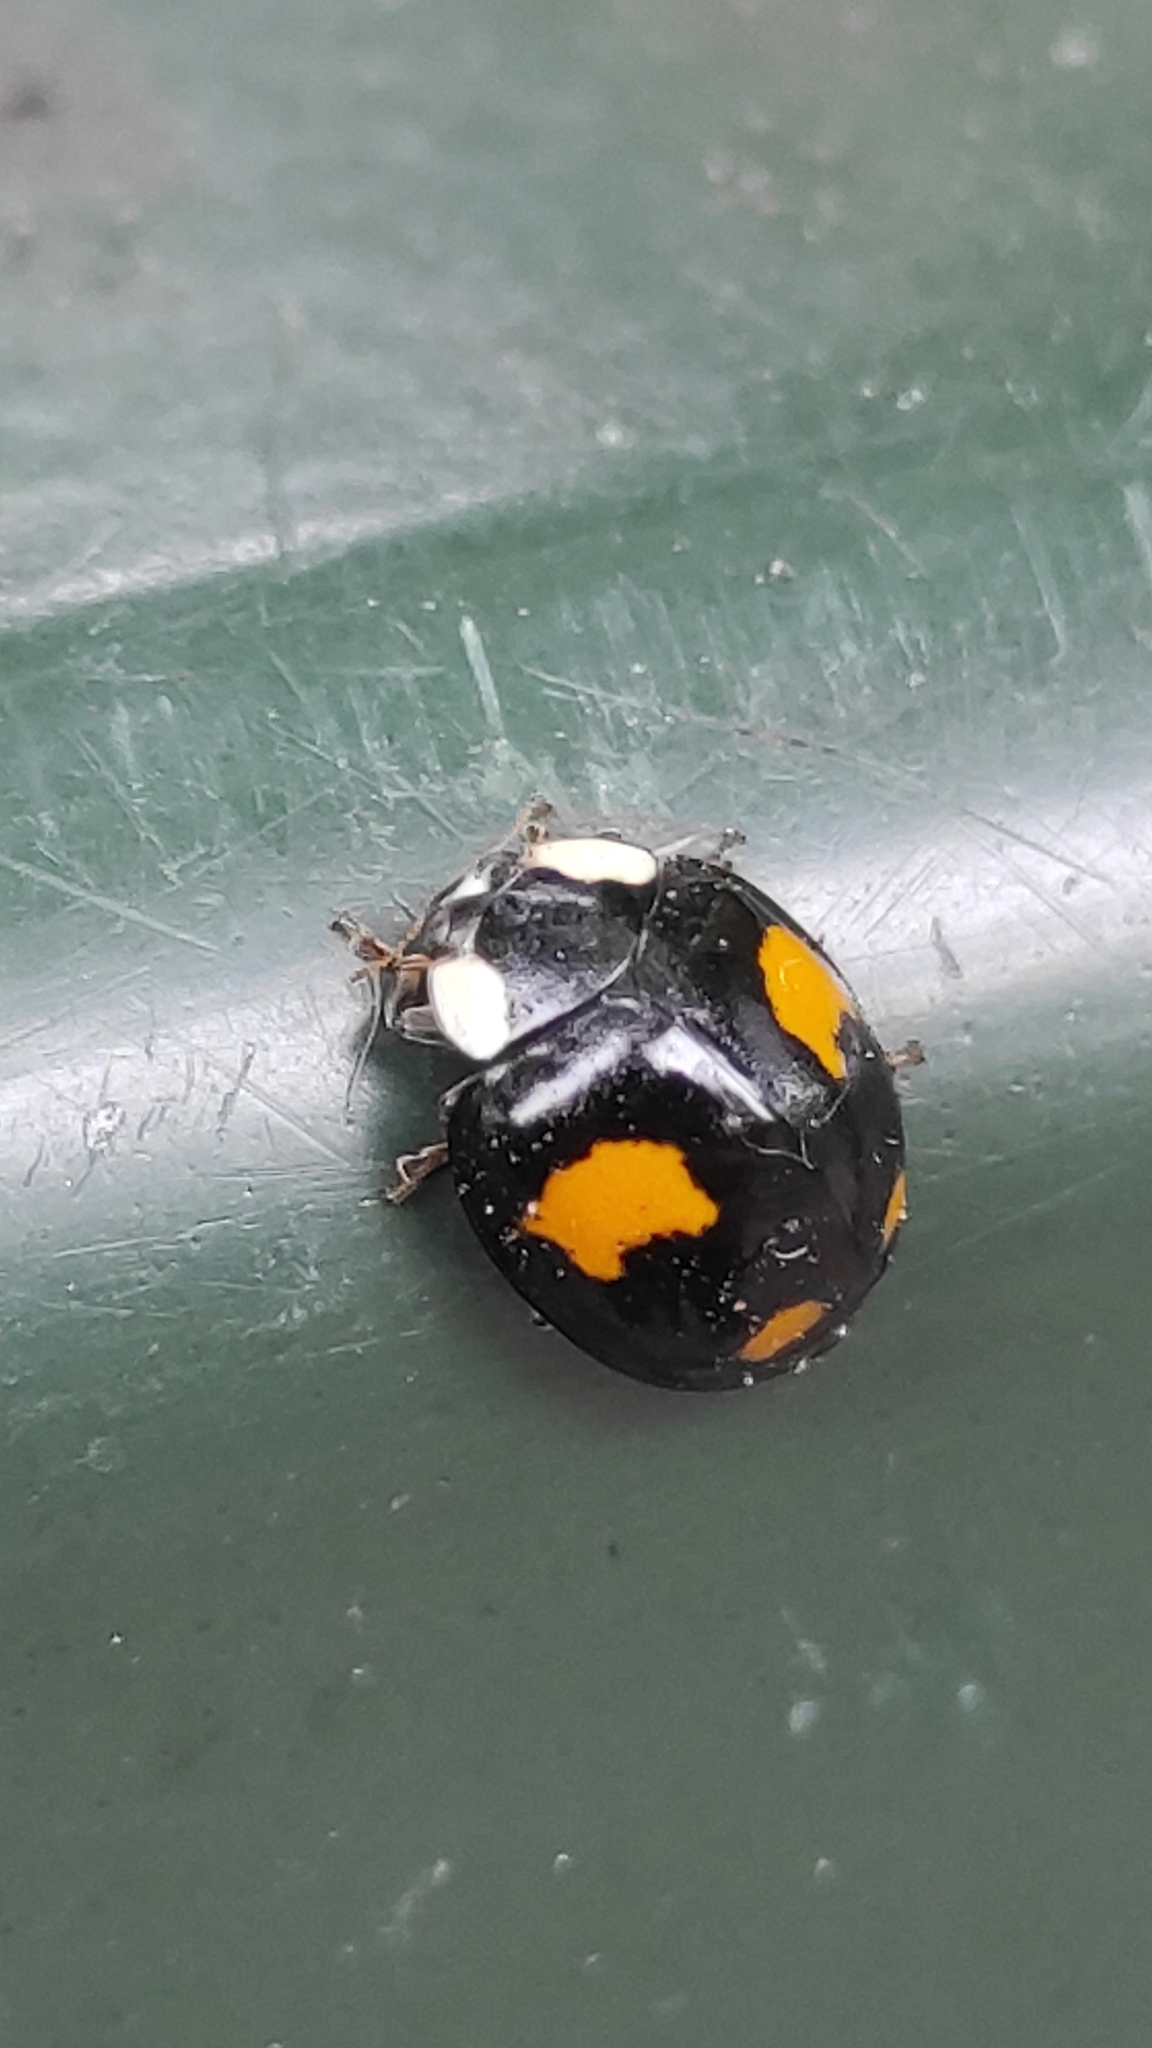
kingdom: Animalia
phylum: Arthropoda
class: Insecta
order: Coleoptera
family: Coccinellidae
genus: Harmonia
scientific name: Harmonia axyridis
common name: Harlequin ladybird
